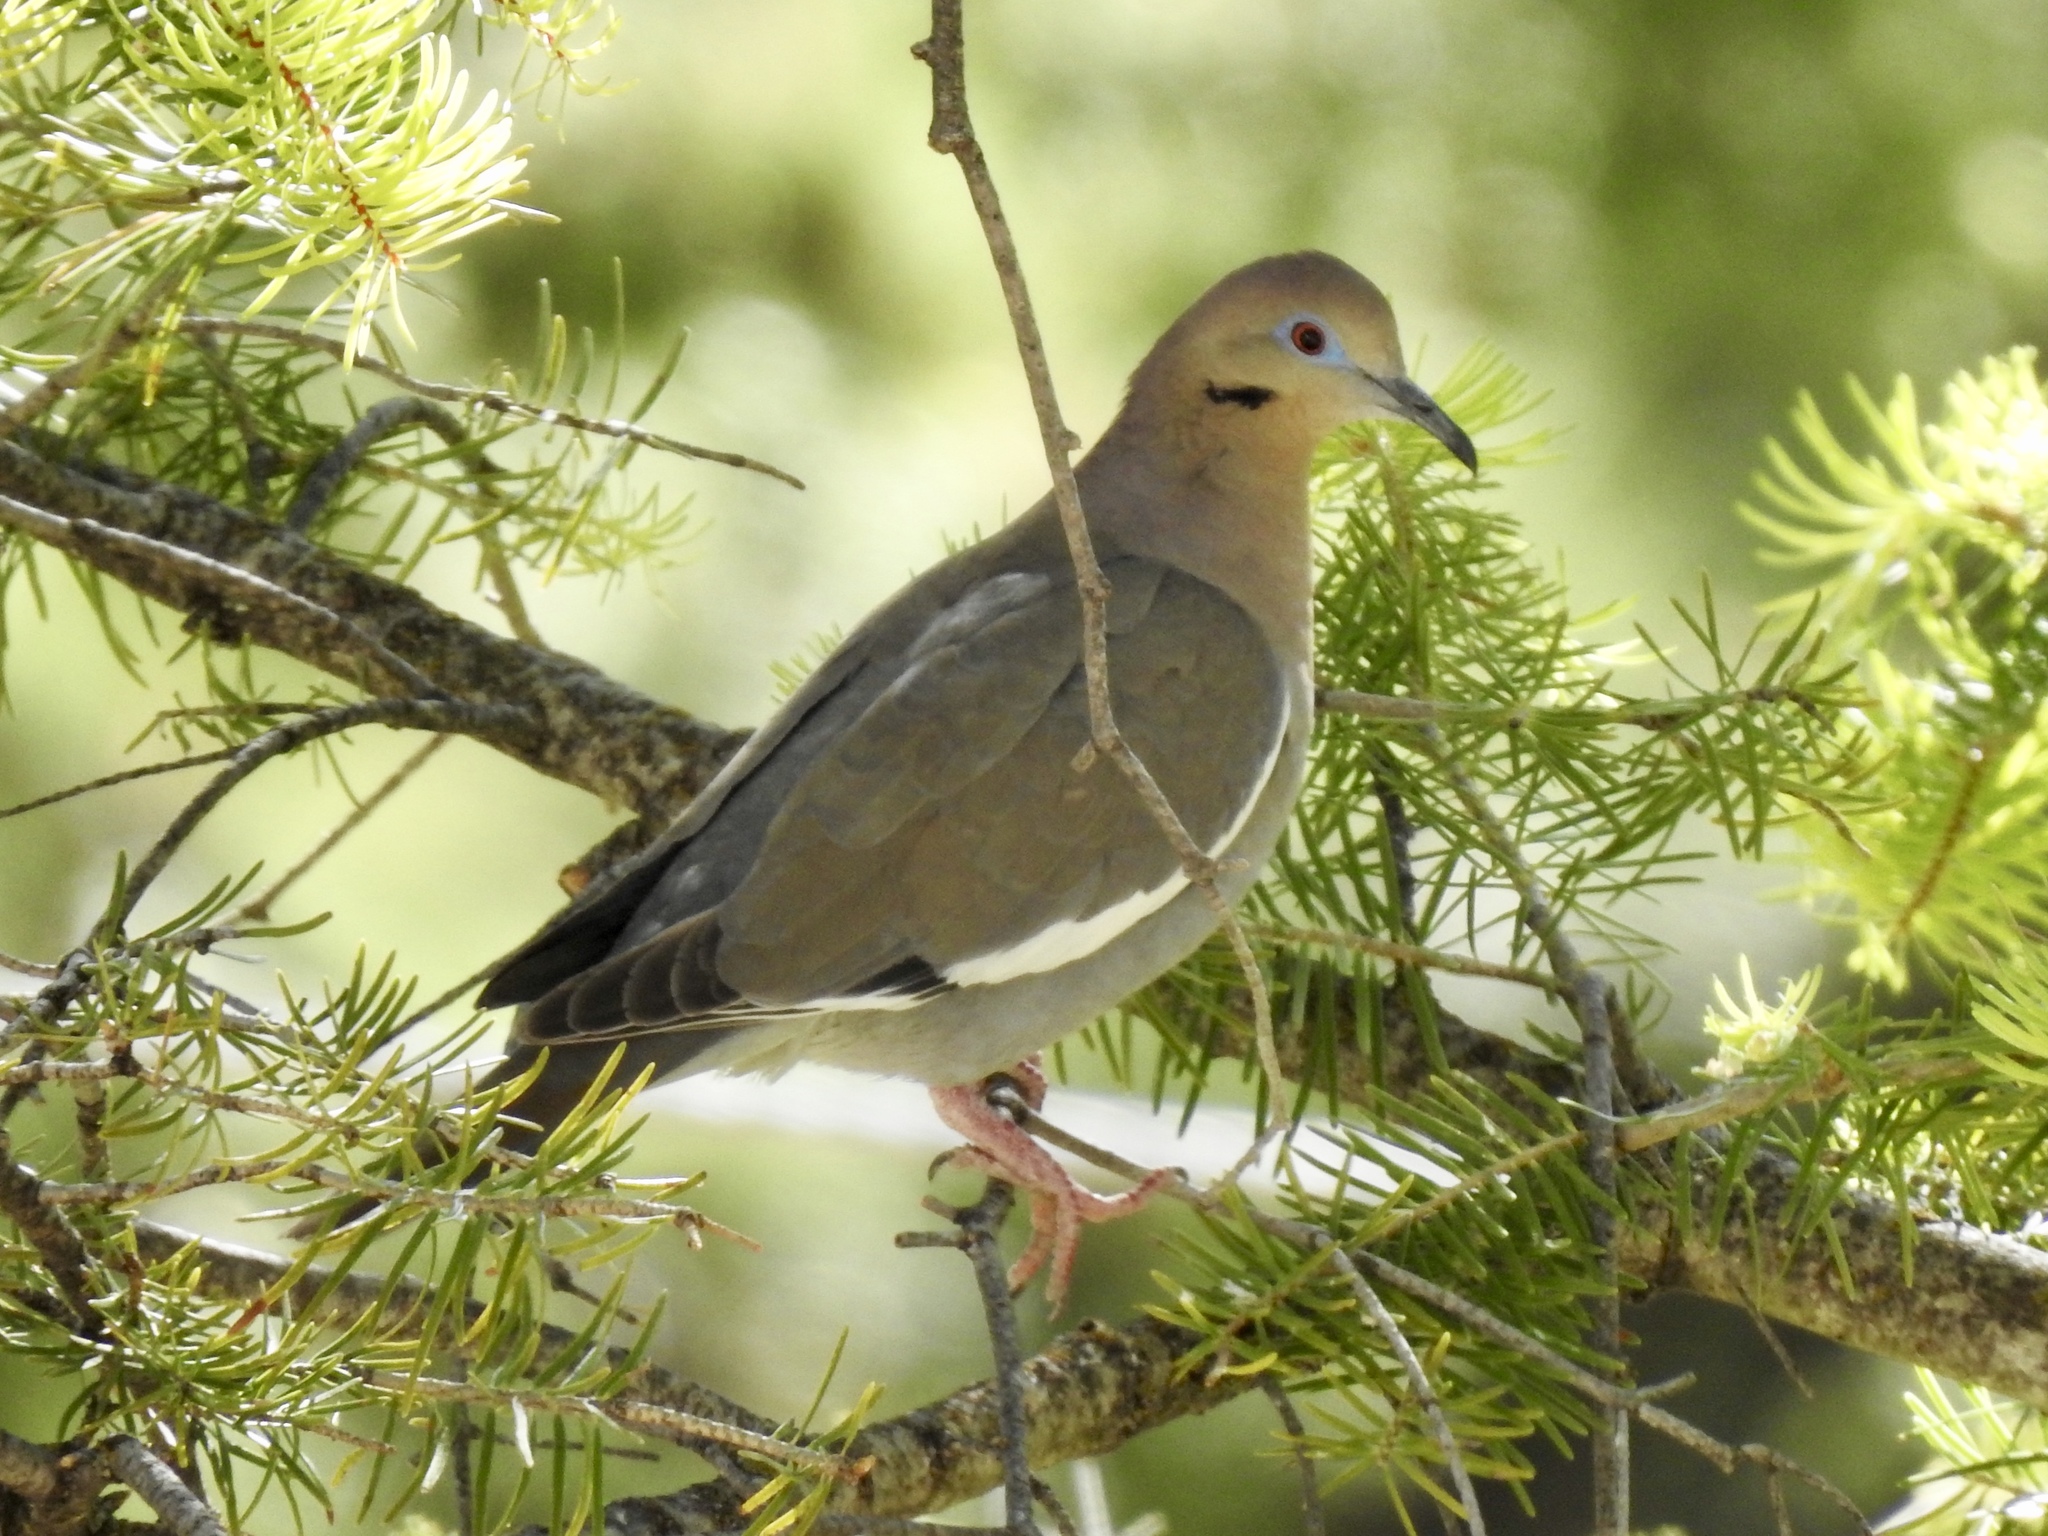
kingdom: Animalia
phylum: Chordata
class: Aves
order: Columbiformes
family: Columbidae
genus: Zenaida
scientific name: Zenaida asiatica
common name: White-winged dove
